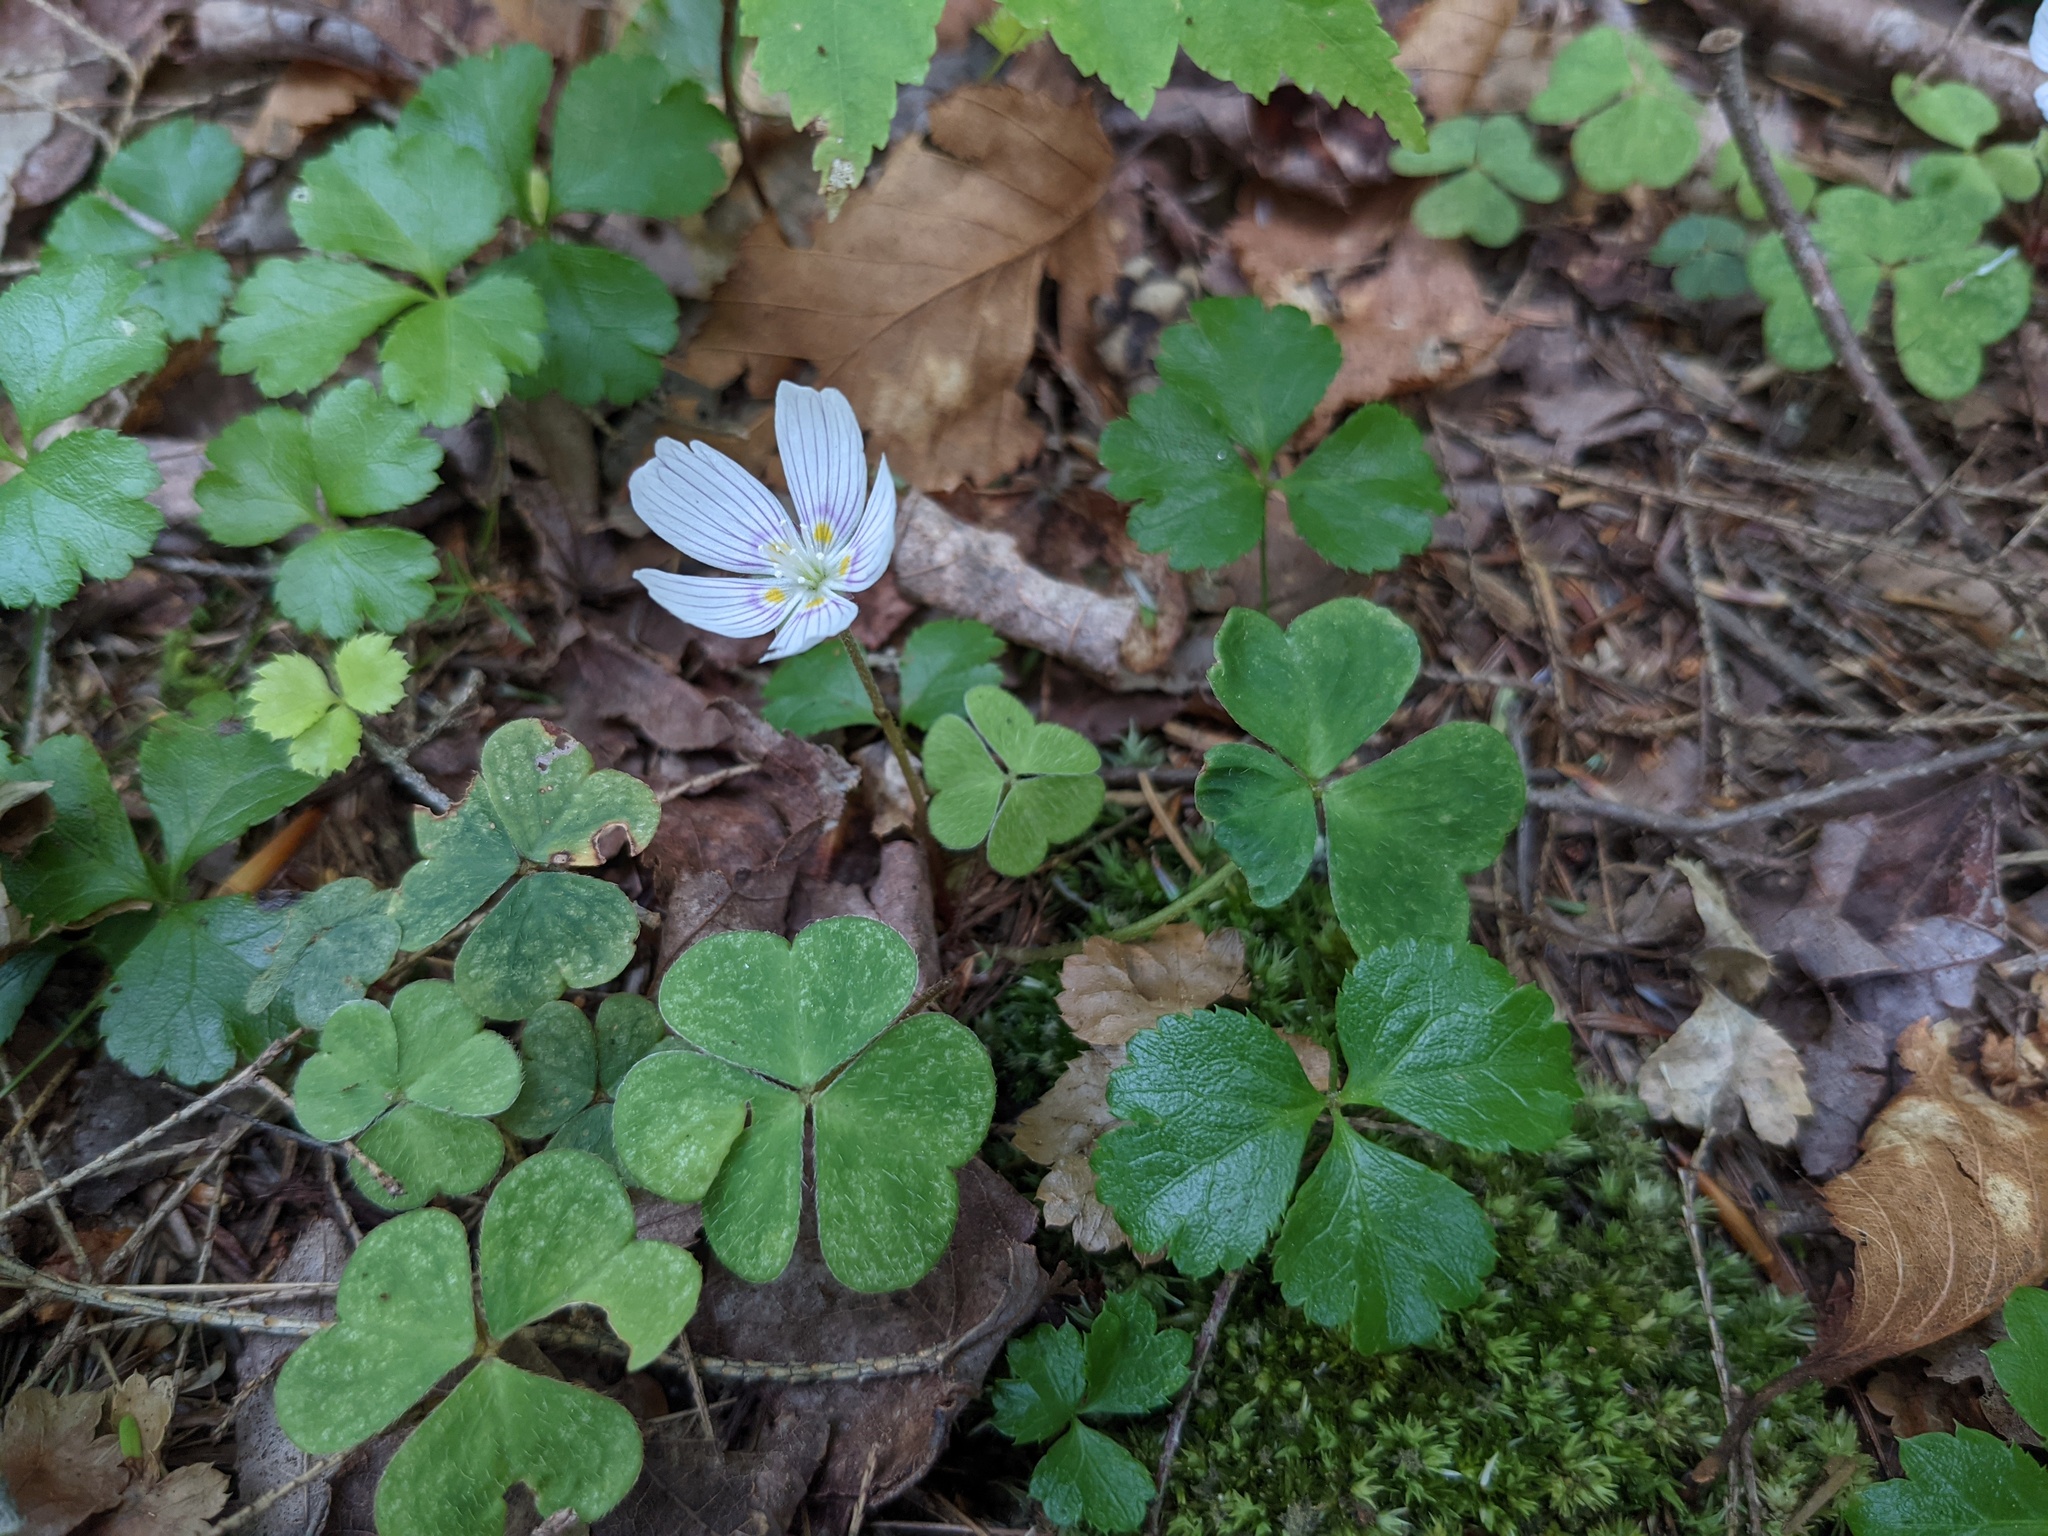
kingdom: Plantae
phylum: Tracheophyta
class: Magnoliopsida
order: Oxalidales
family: Oxalidaceae
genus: Oxalis
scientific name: Oxalis montana
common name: American wood-sorrel
